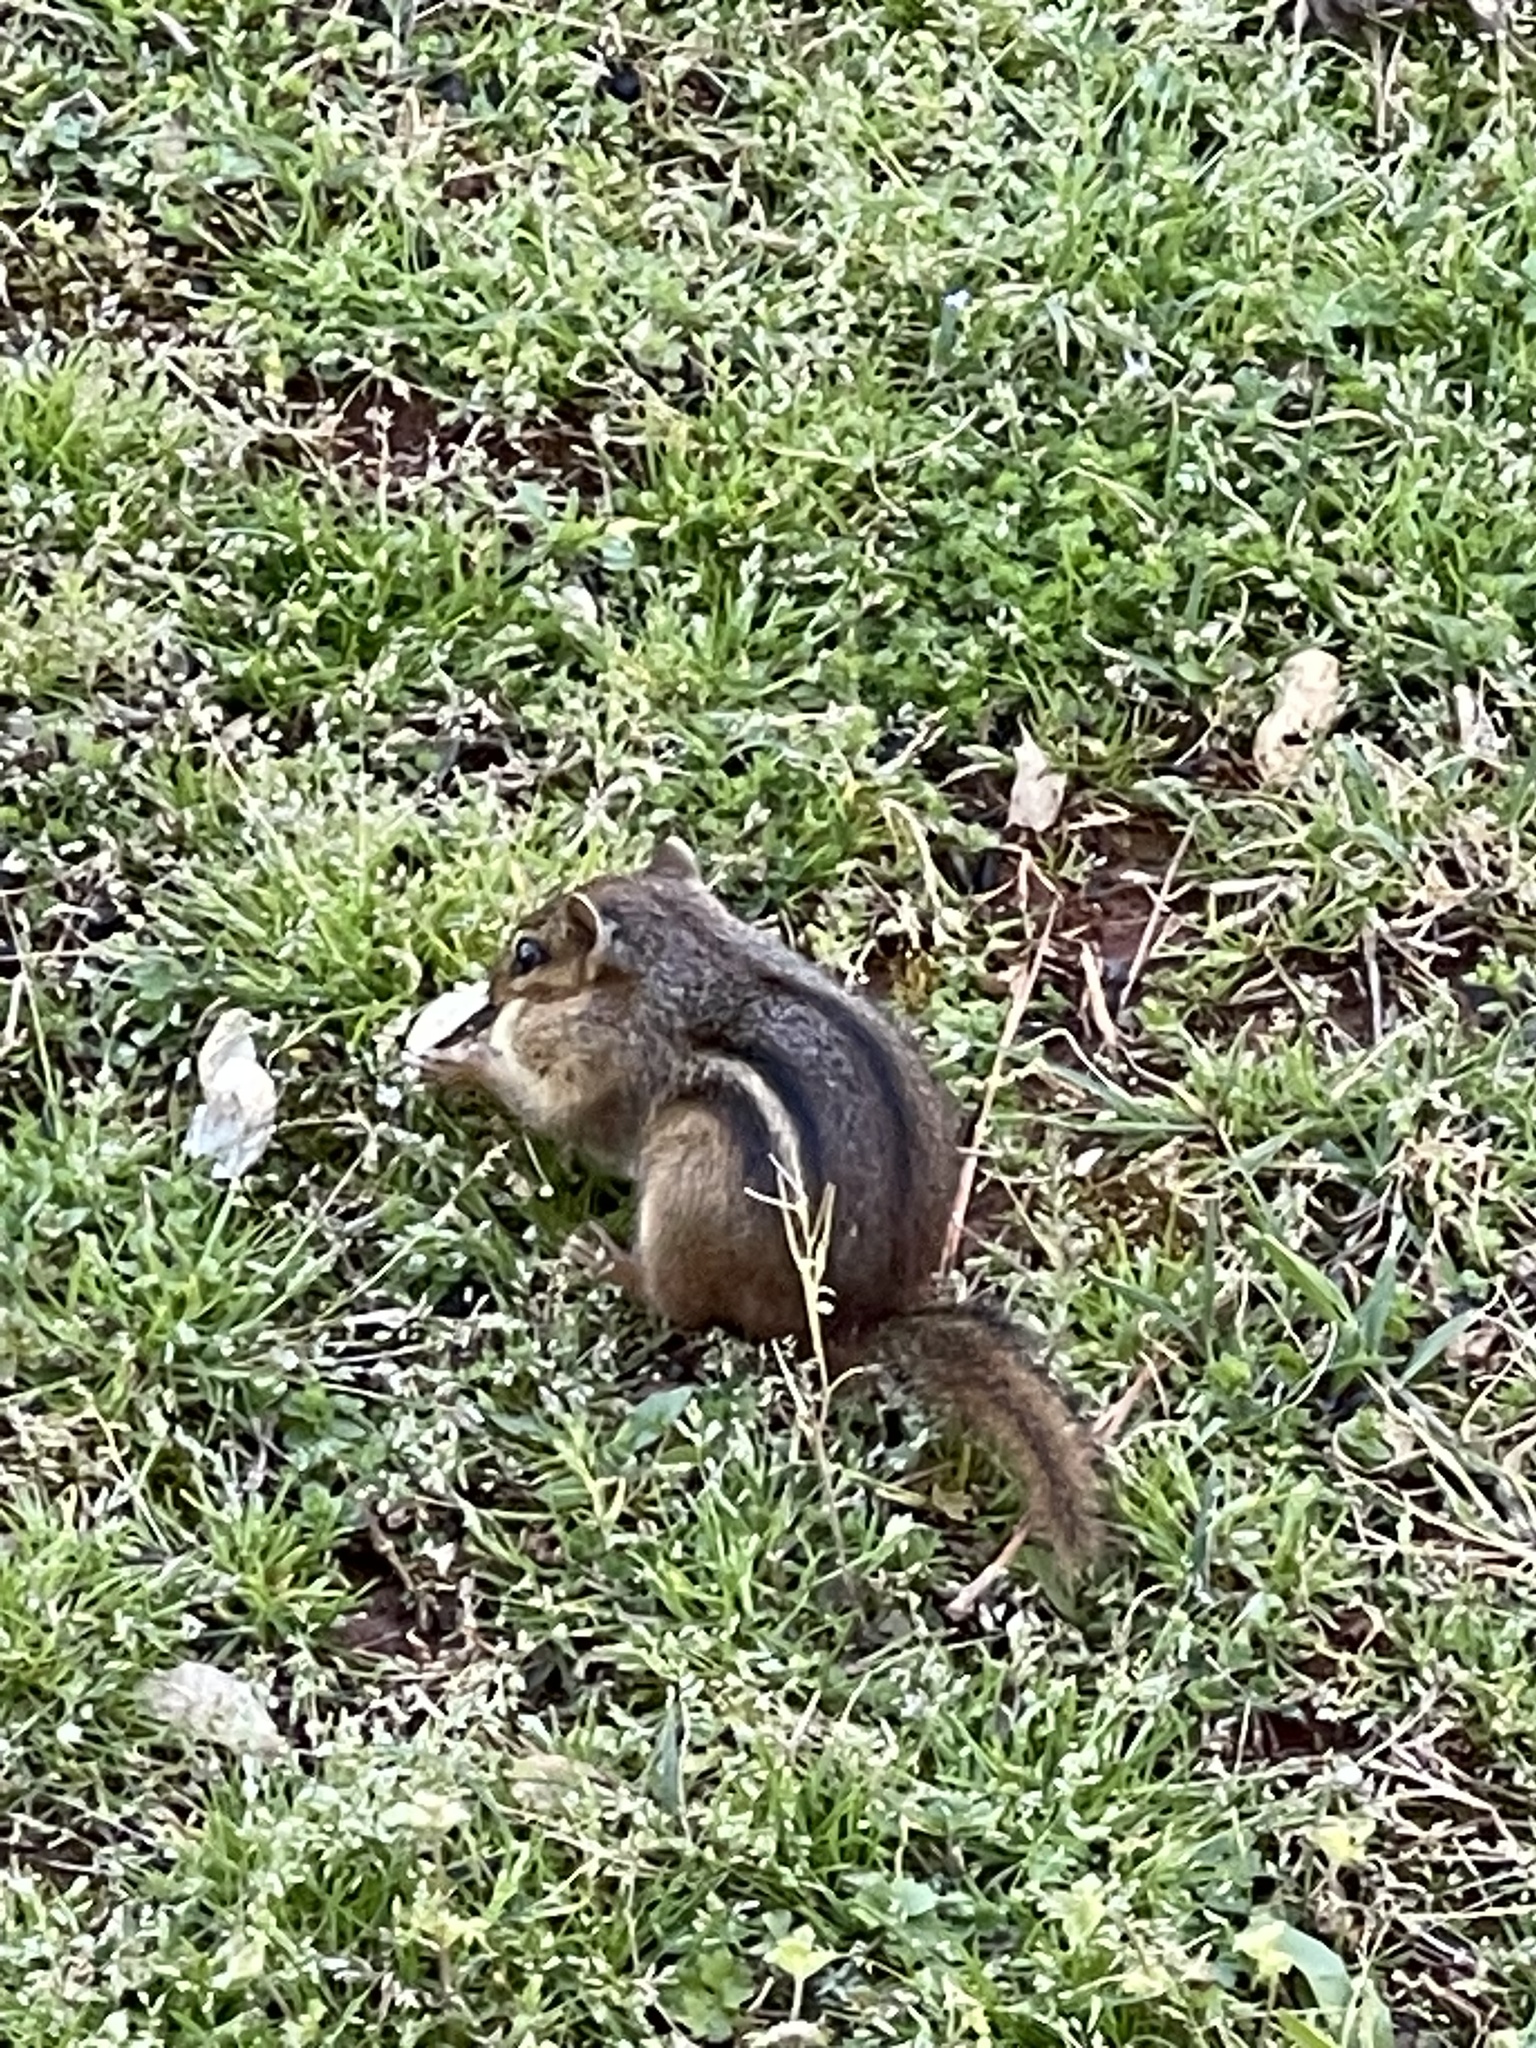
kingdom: Animalia
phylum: Chordata
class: Mammalia
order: Rodentia
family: Sciuridae
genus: Tamias
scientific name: Tamias striatus
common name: Eastern chipmunk
